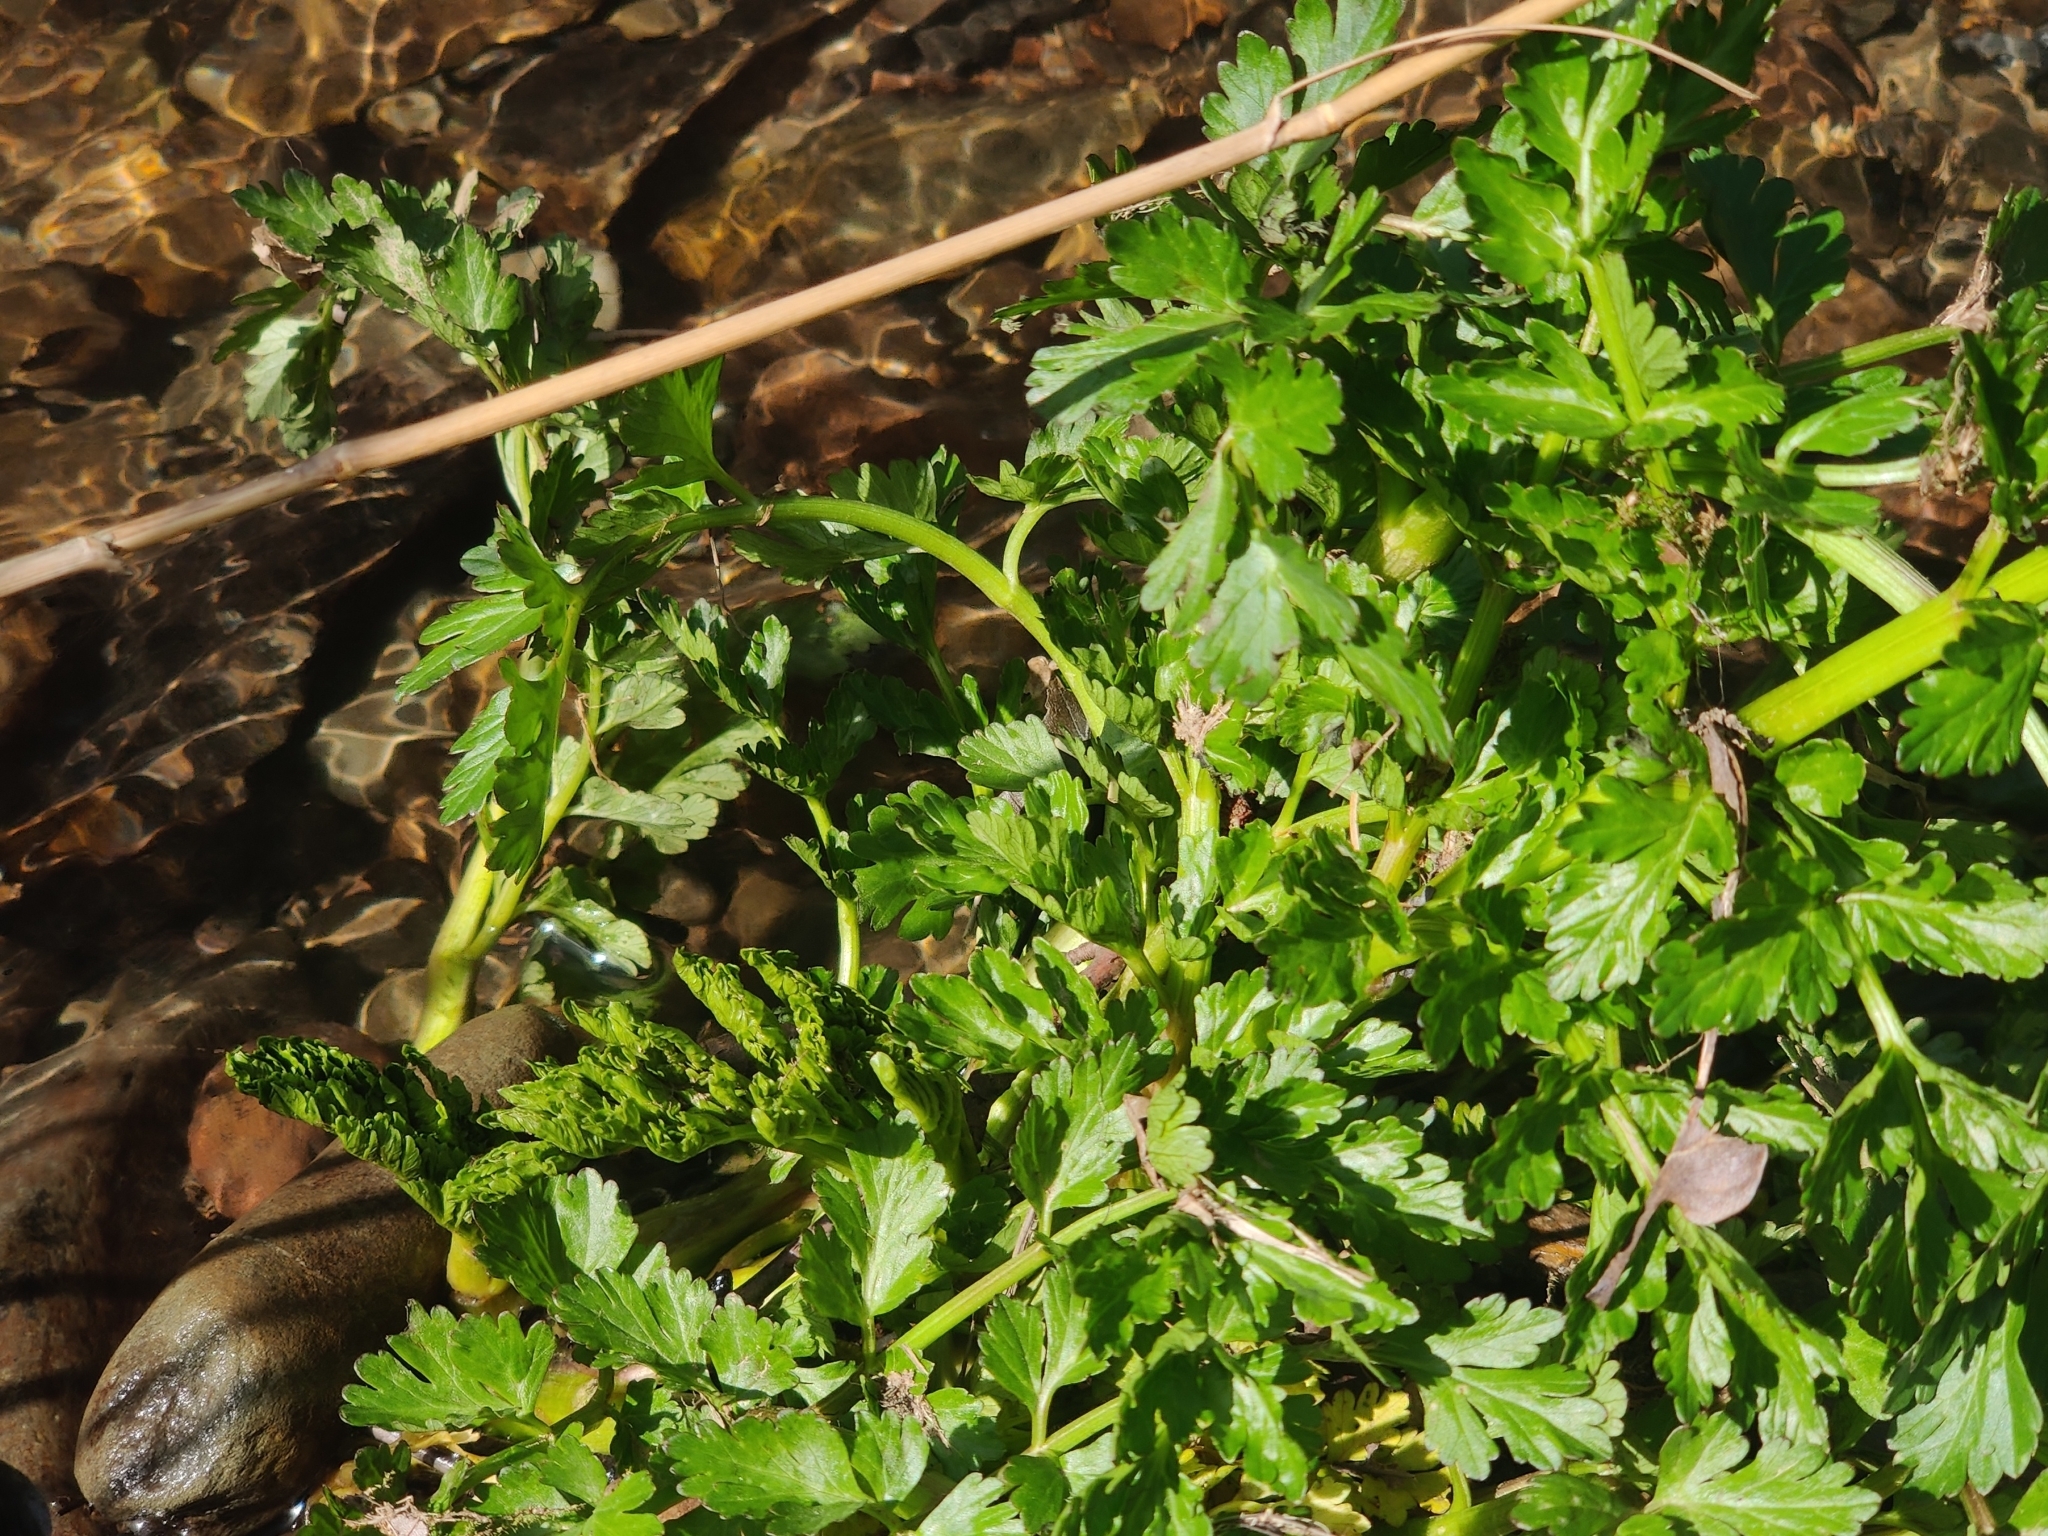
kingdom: Plantae
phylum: Tracheophyta
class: Magnoliopsida
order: Apiales
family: Apiaceae
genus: Oenanthe
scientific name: Oenanthe crocata
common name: Hemlock water-dropwort
